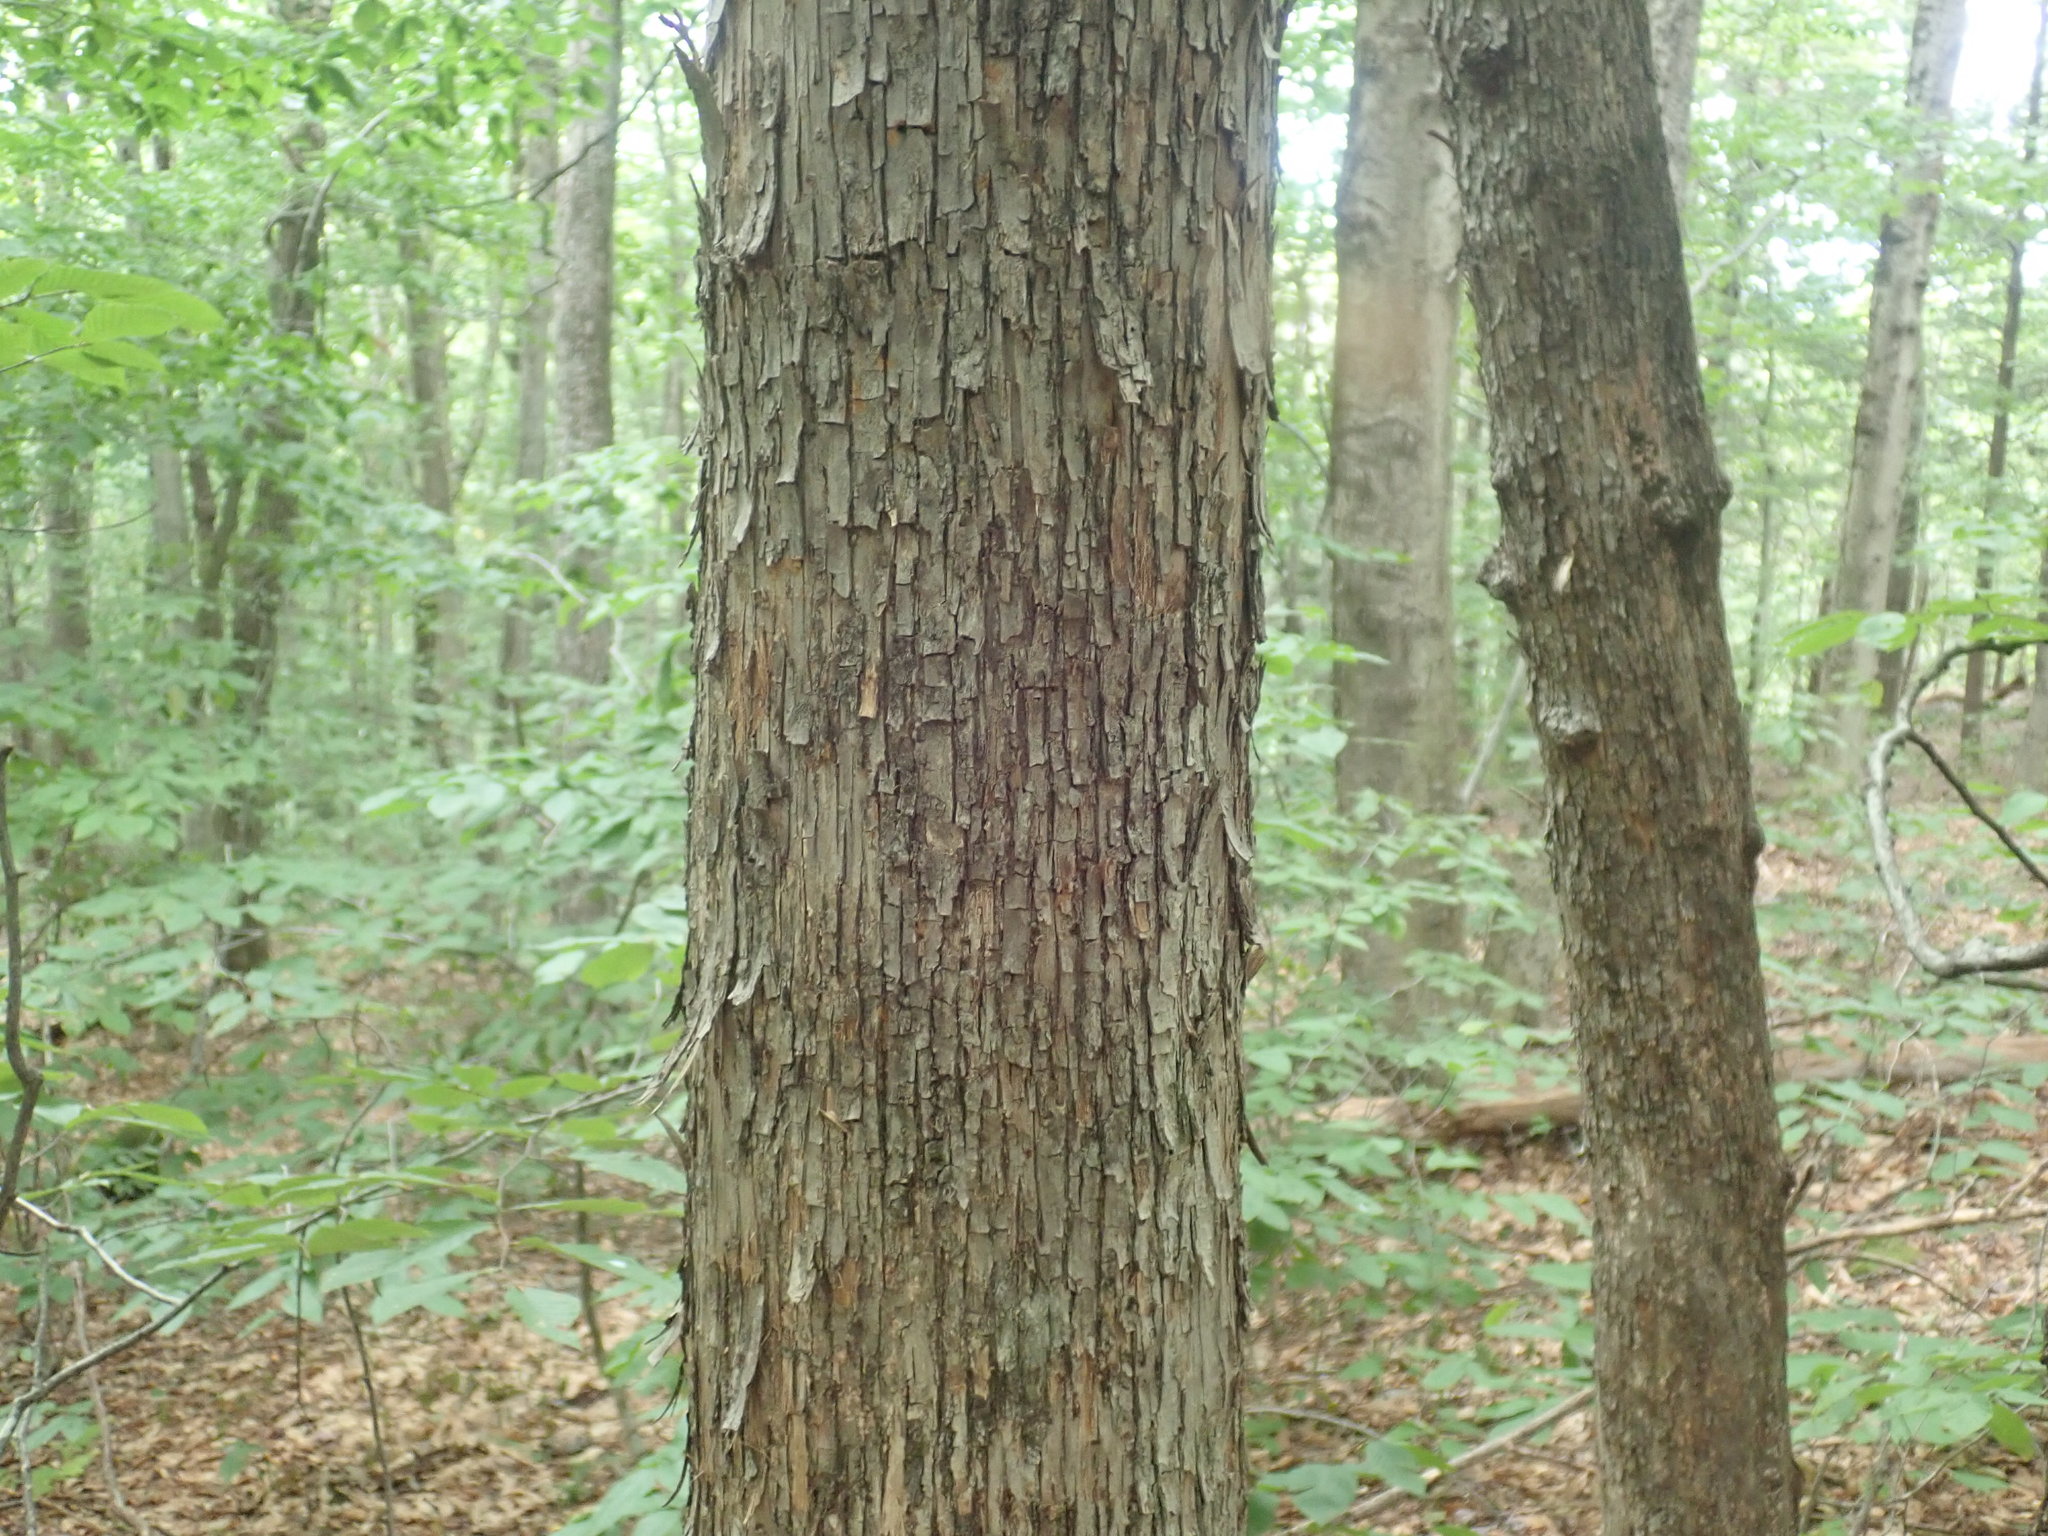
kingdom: Plantae
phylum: Tracheophyta
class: Magnoliopsida
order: Fagales
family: Betulaceae
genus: Ostrya
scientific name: Ostrya virginiana
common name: Ironwood
